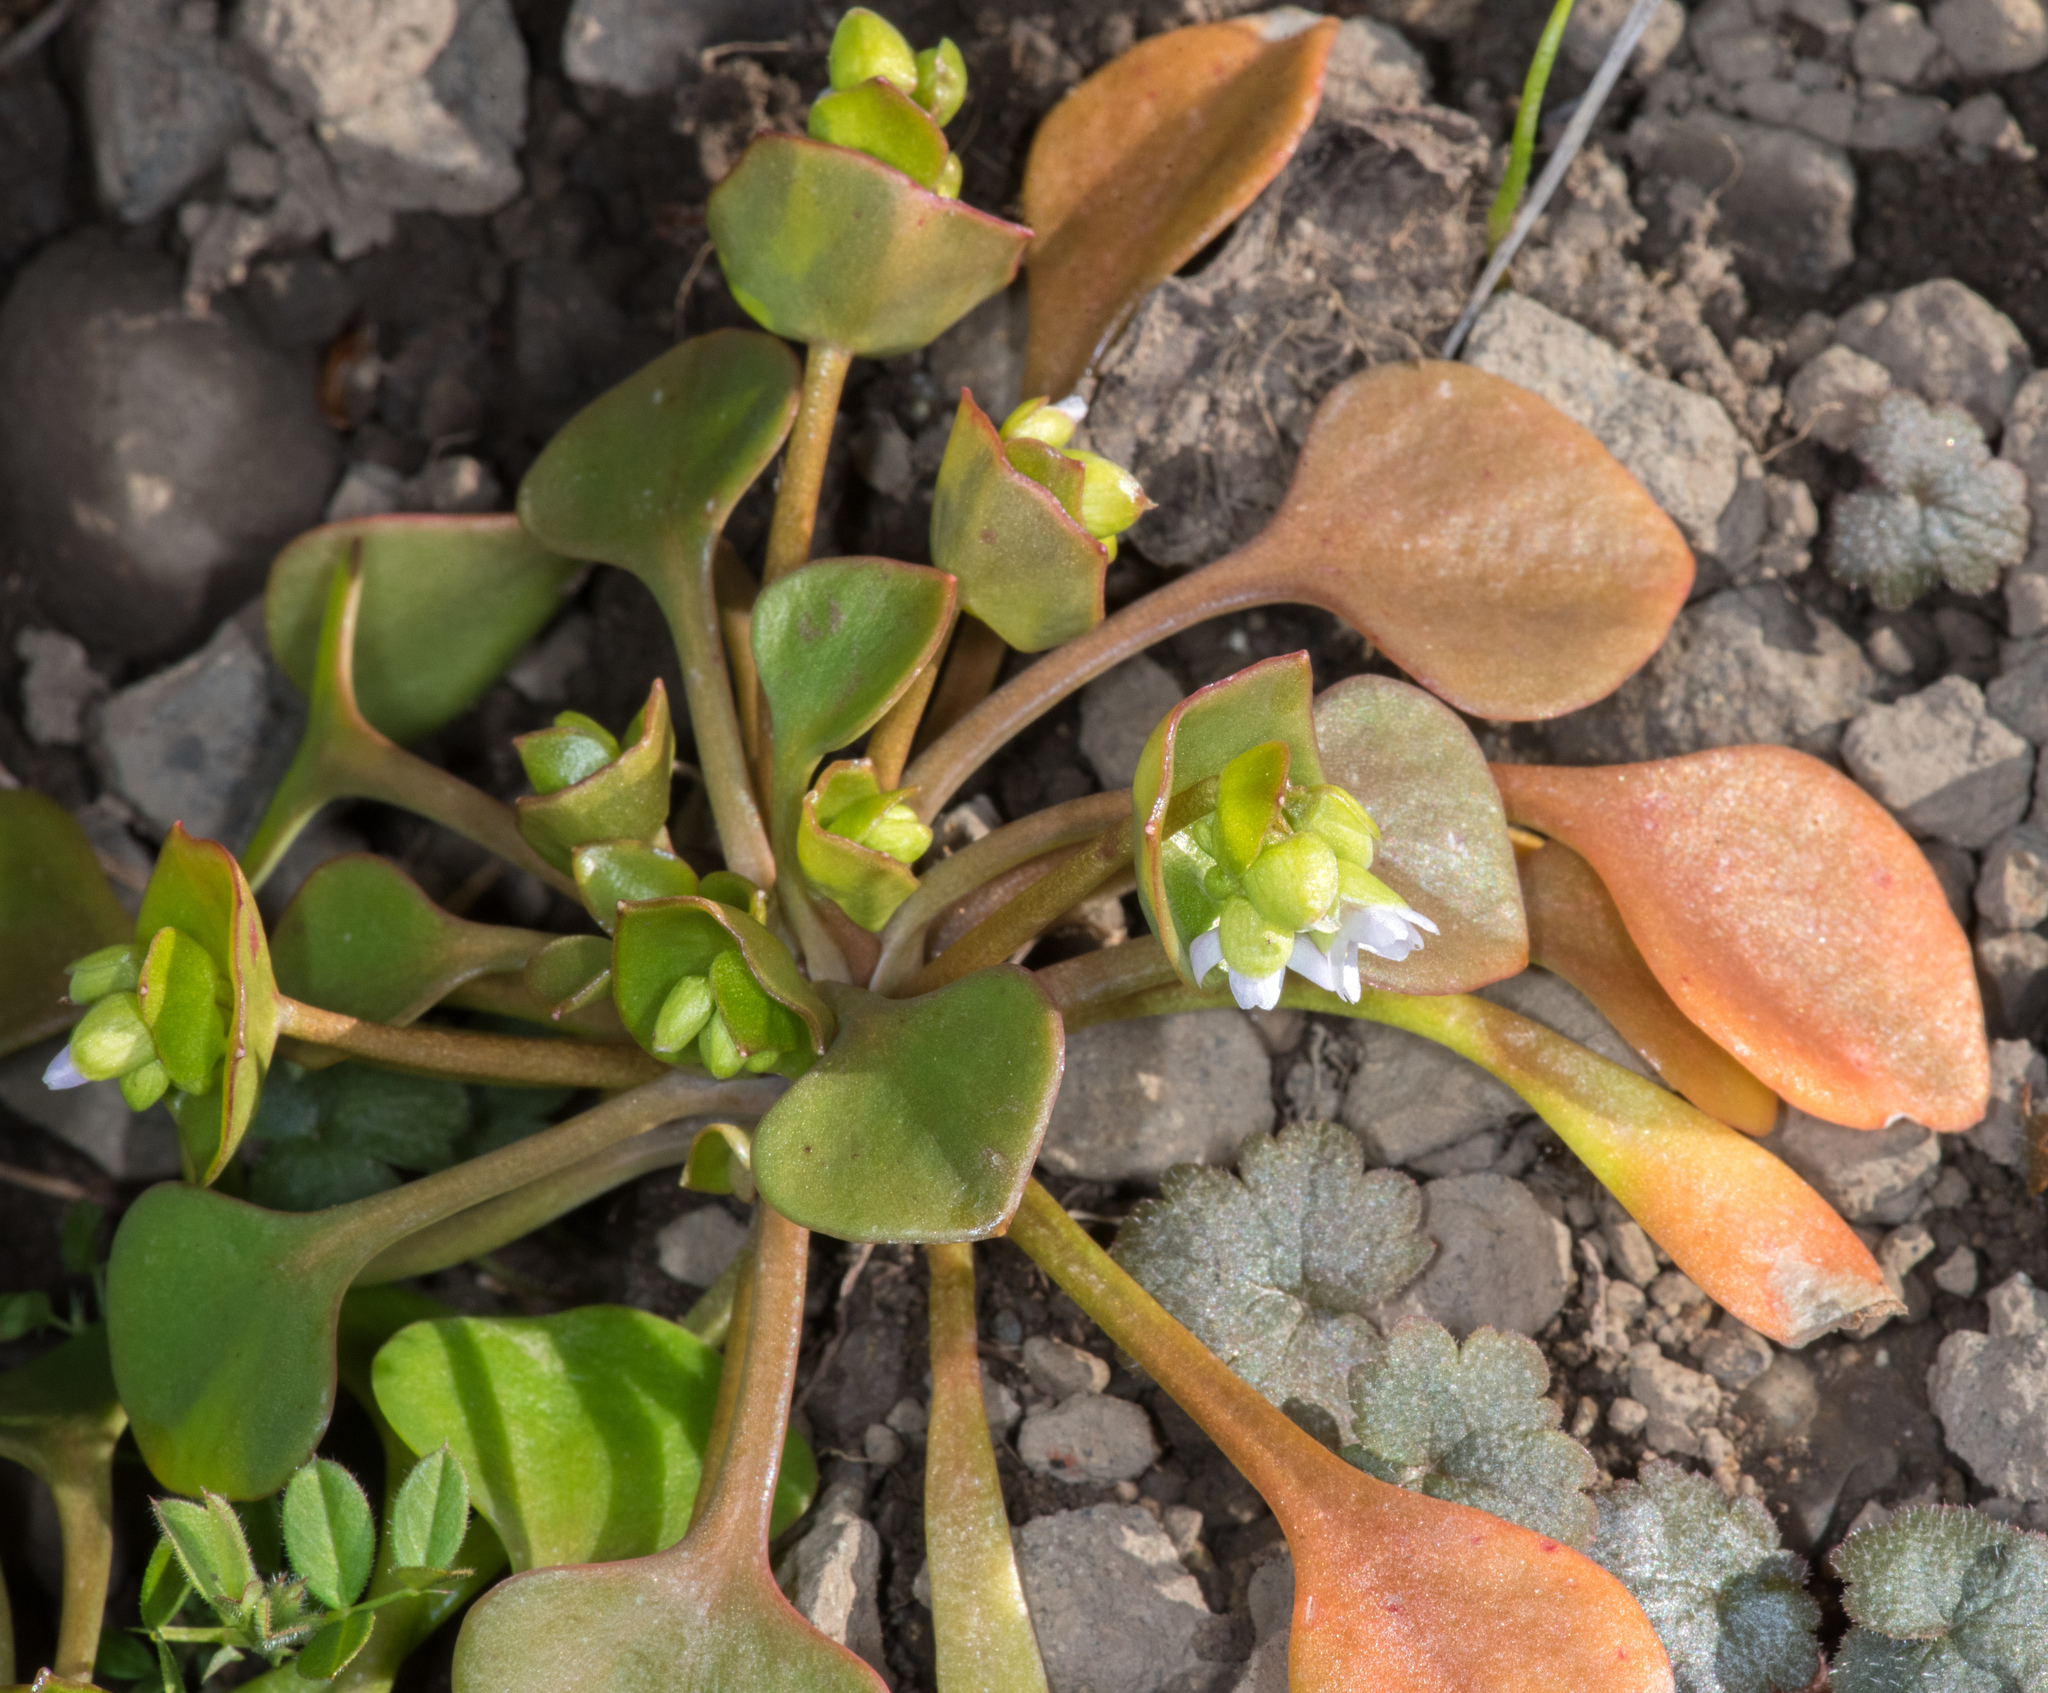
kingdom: Plantae
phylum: Tracheophyta
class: Magnoliopsida
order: Caryophyllales
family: Montiaceae
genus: Claytonia
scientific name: Claytonia rubra
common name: Erubescent miner's-lettuce
